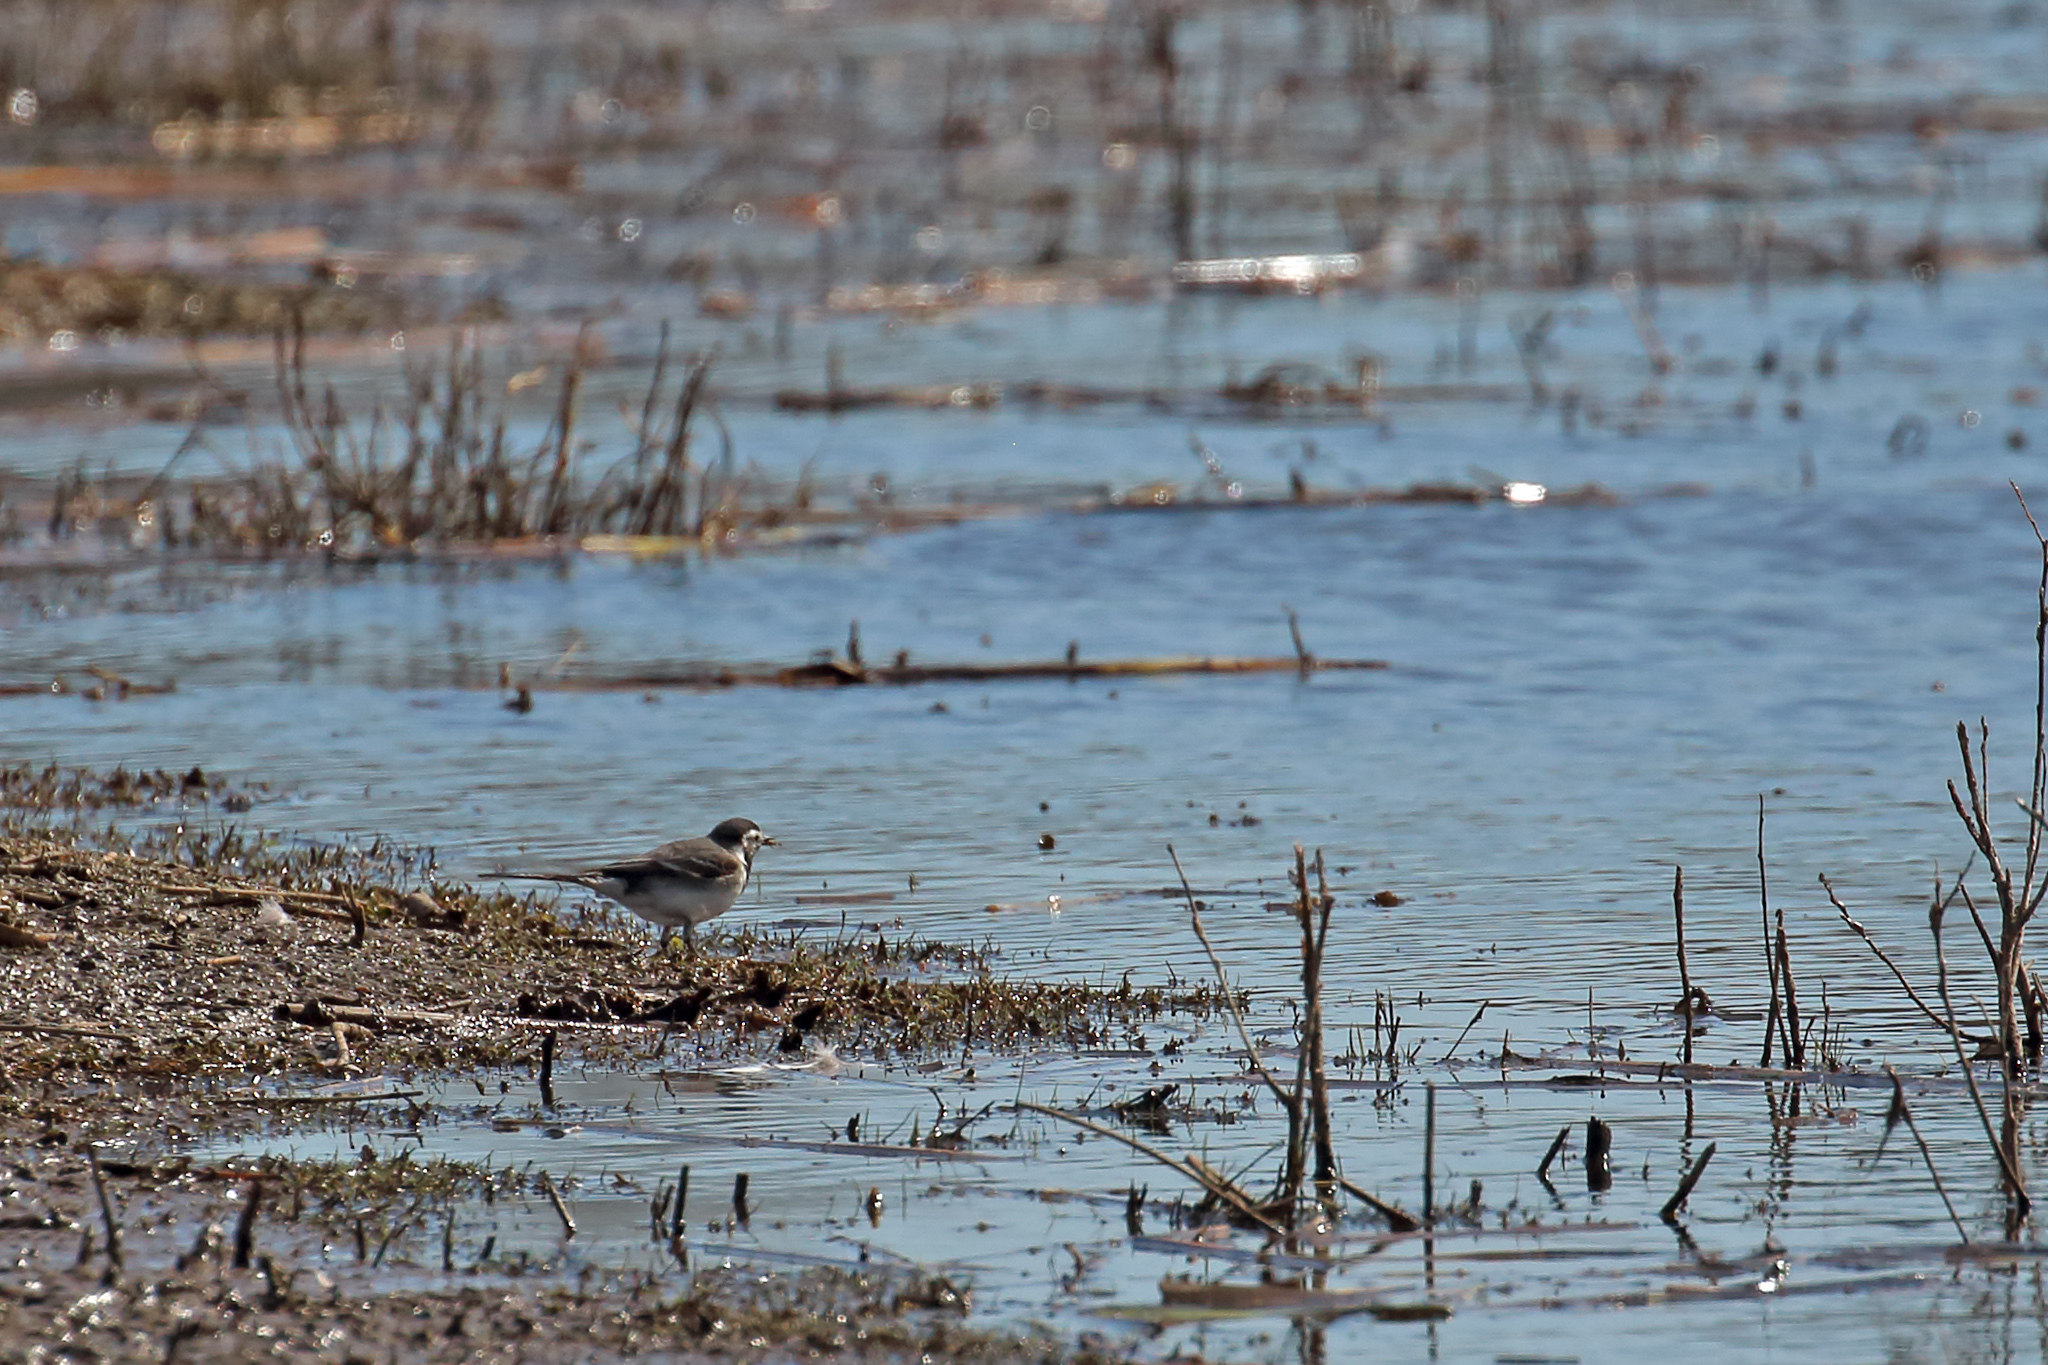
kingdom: Animalia
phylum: Chordata
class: Aves
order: Passeriformes
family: Motacillidae
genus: Motacilla
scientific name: Motacilla alba
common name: White wagtail
